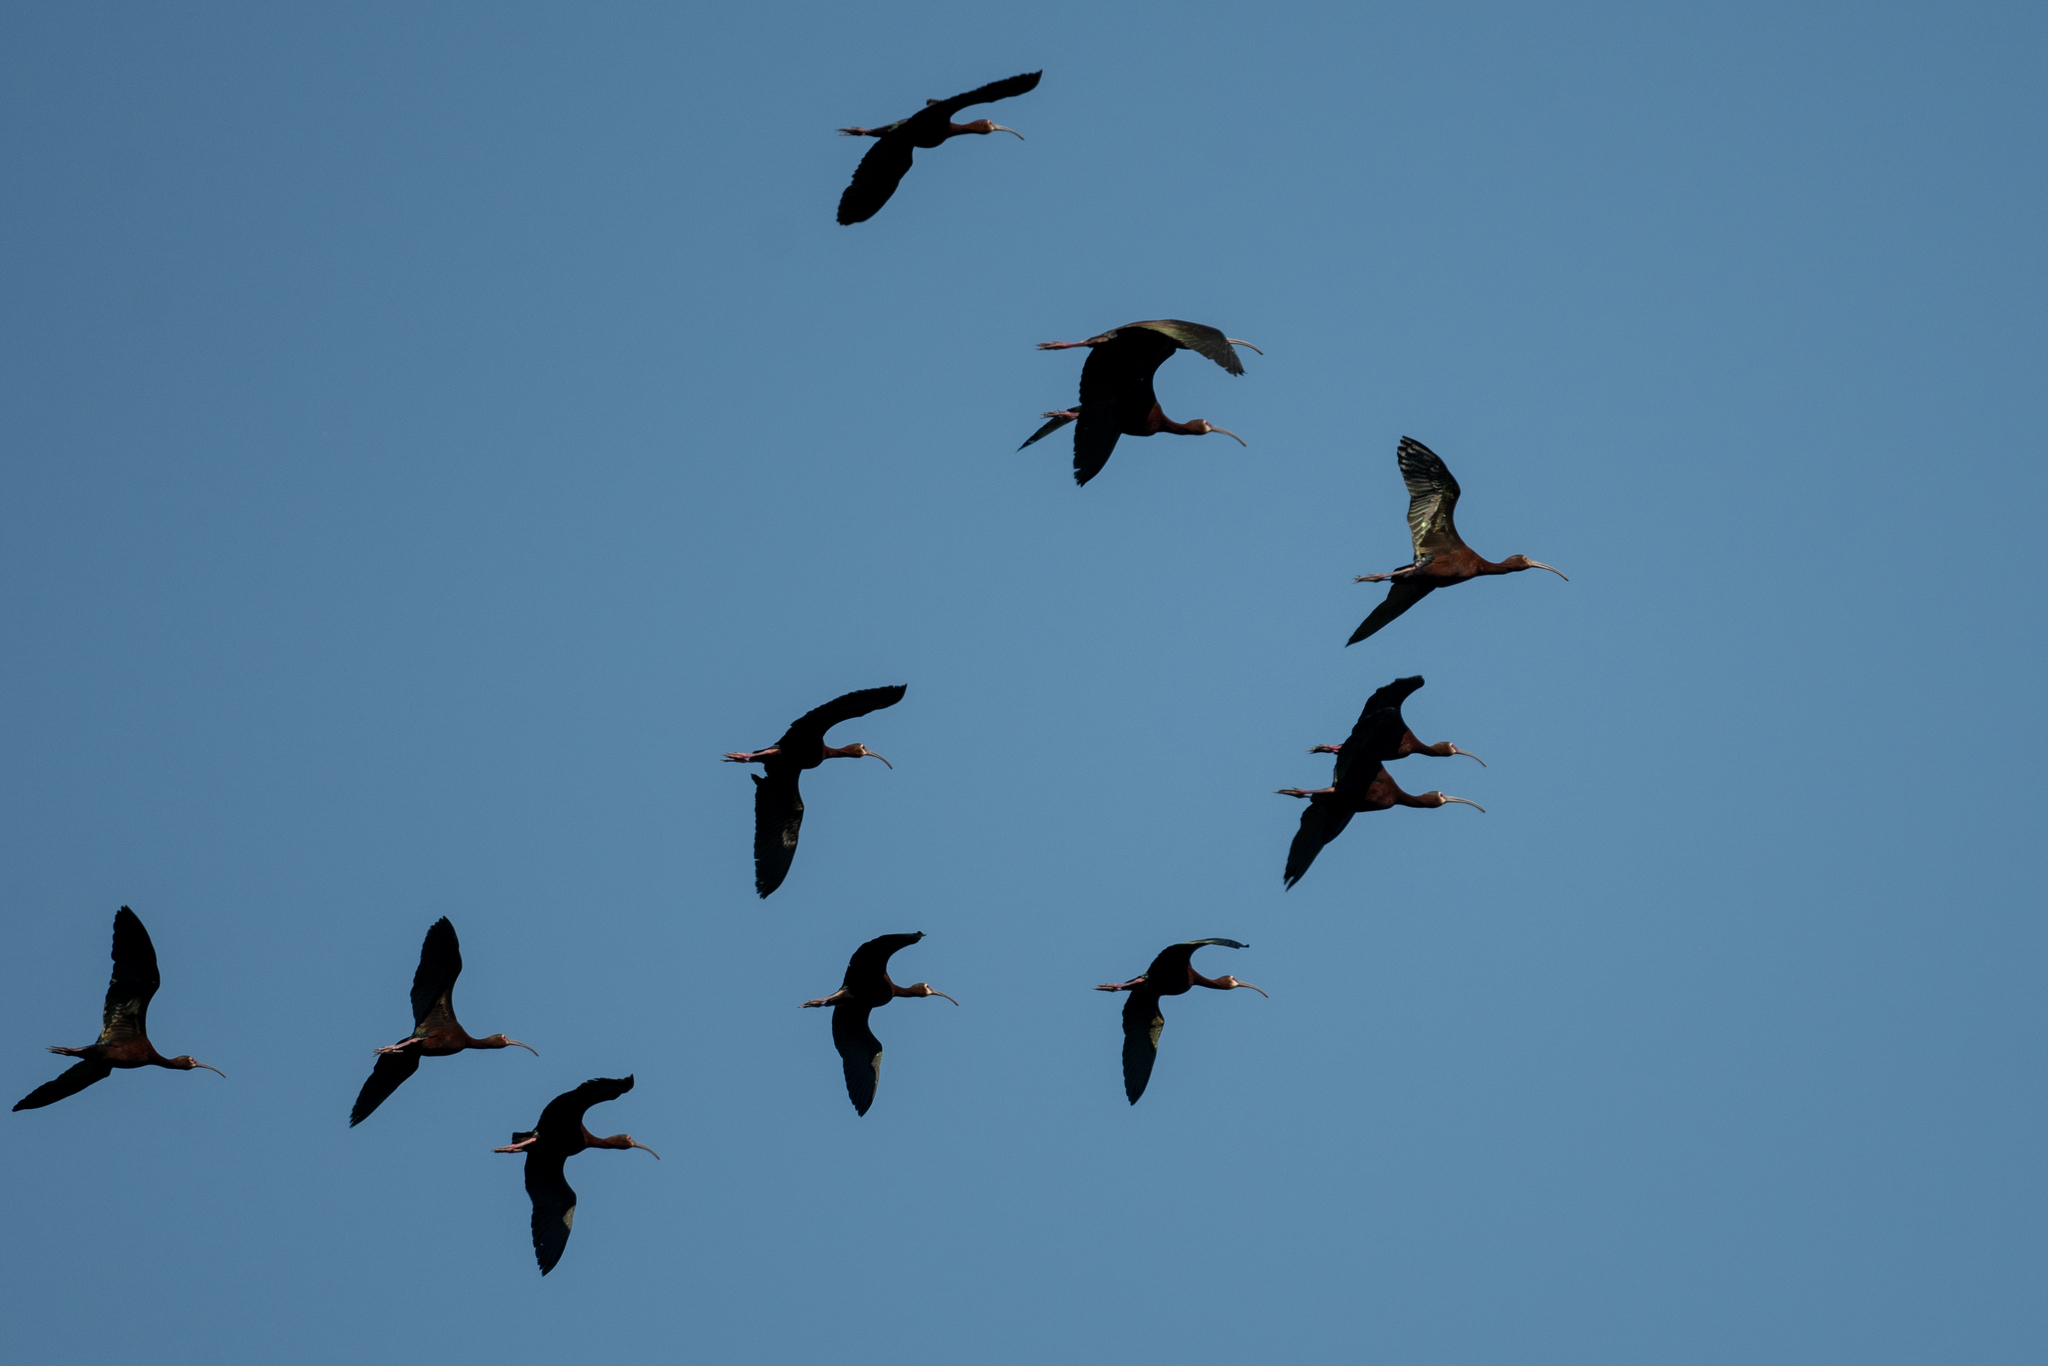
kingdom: Animalia
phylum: Chordata
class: Aves
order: Pelecaniformes
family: Threskiornithidae
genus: Plegadis
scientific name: Plegadis chihi
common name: White-faced ibis
